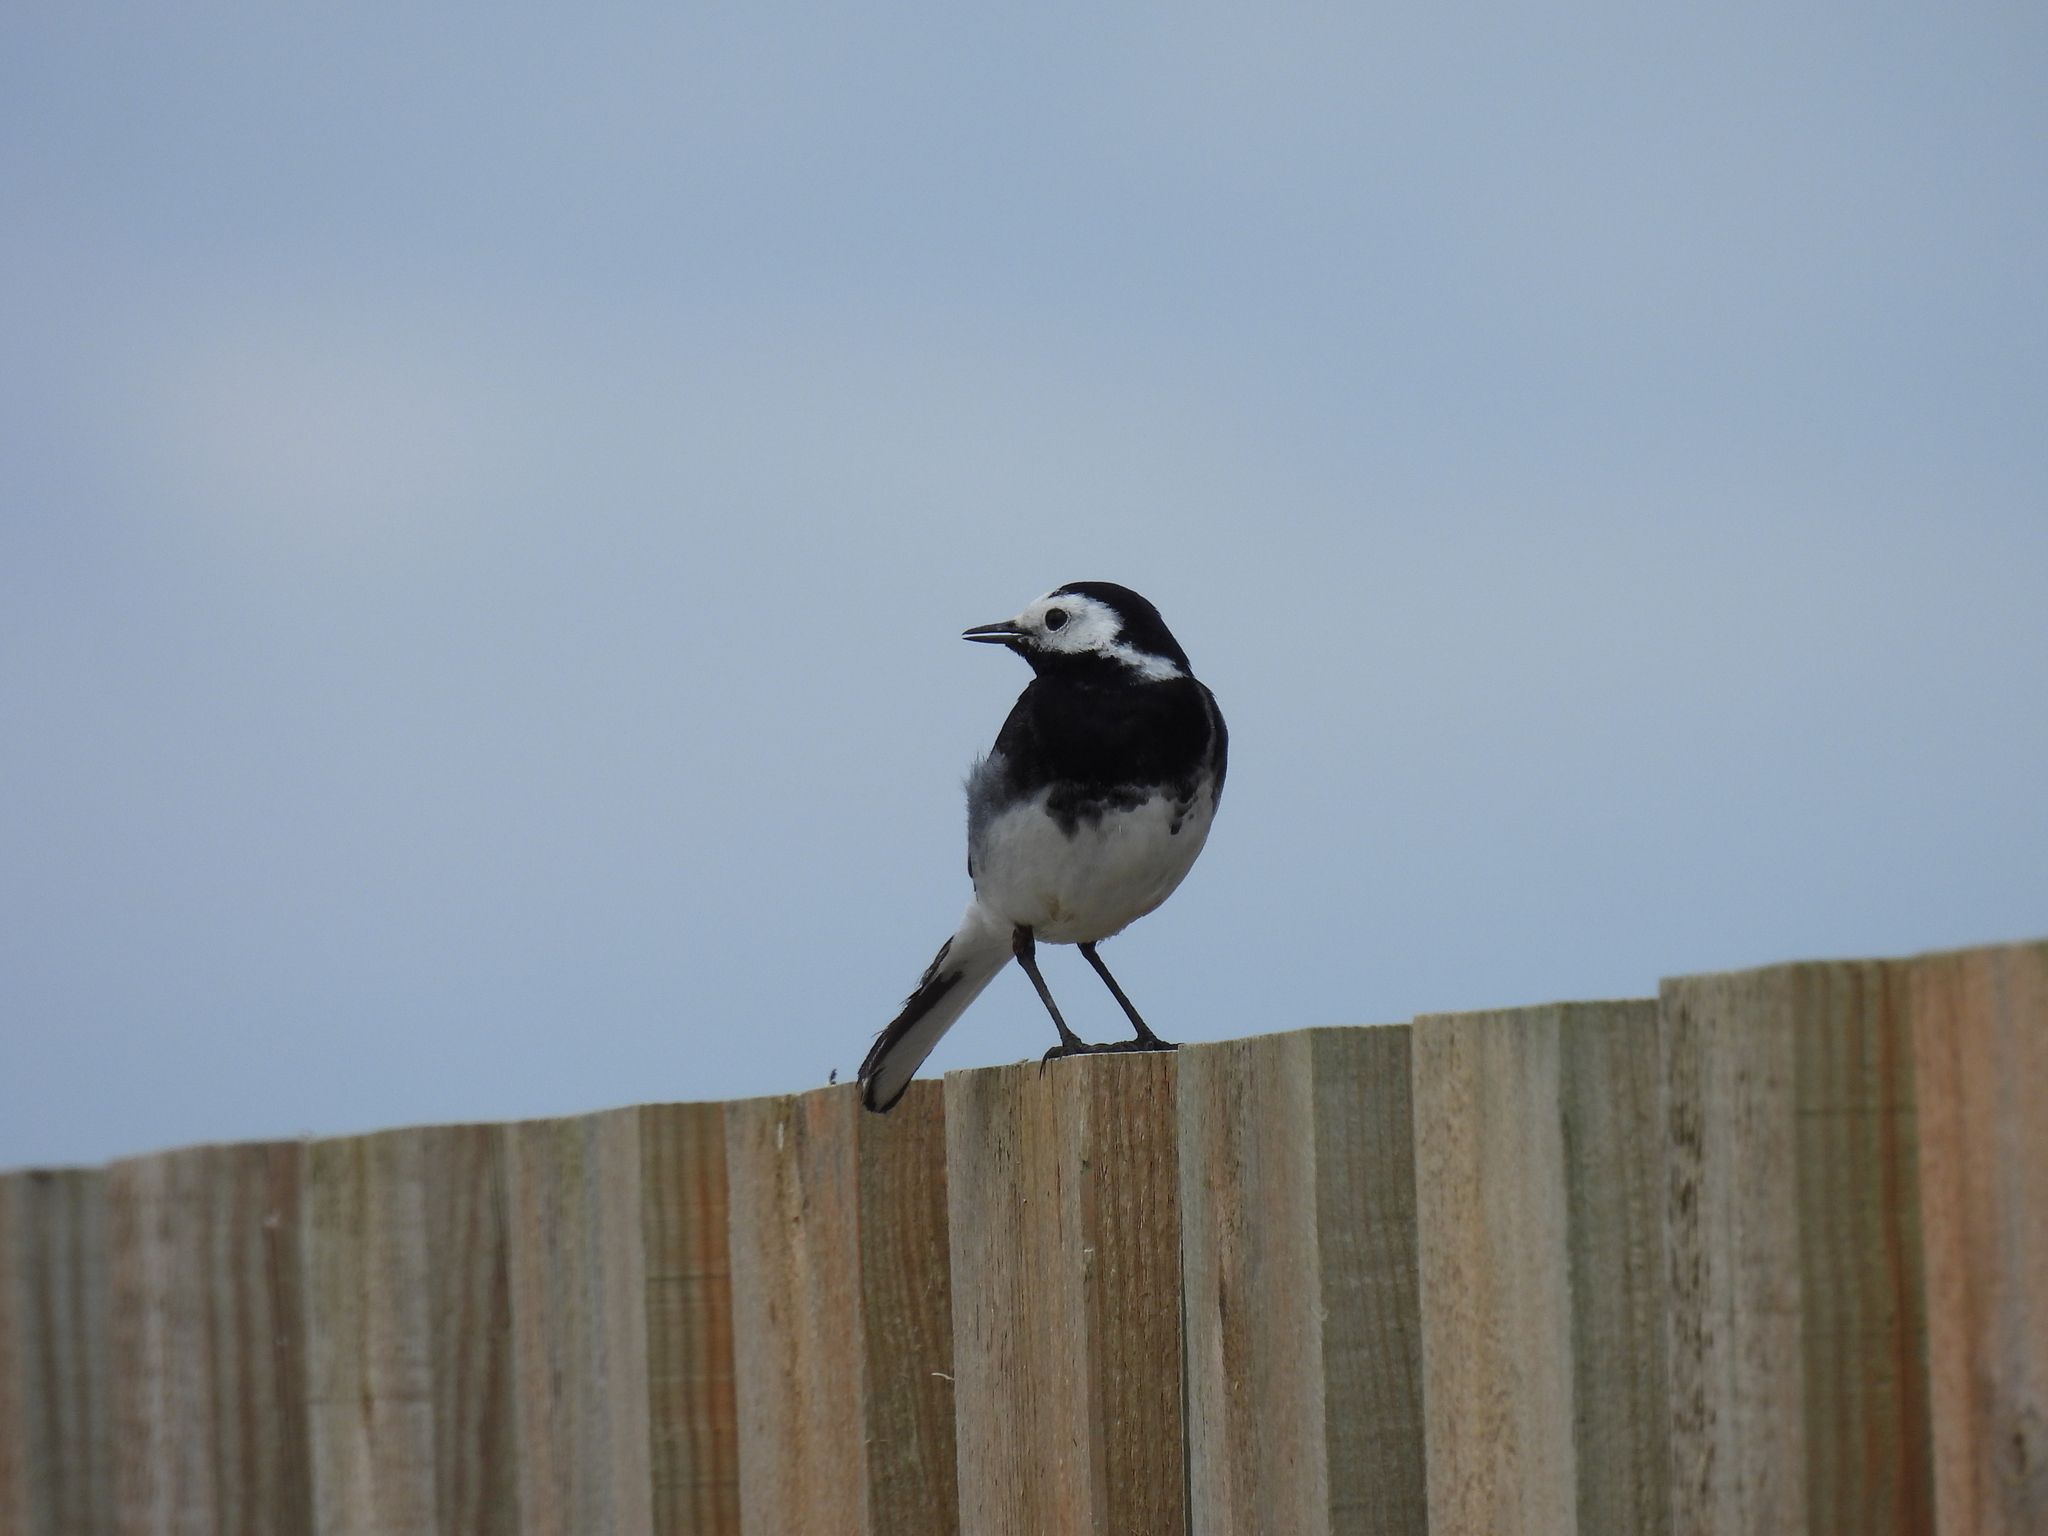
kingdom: Animalia
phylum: Chordata
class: Aves
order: Passeriformes
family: Motacillidae
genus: Motacilla
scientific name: Motacilla alba
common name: White wagtail
